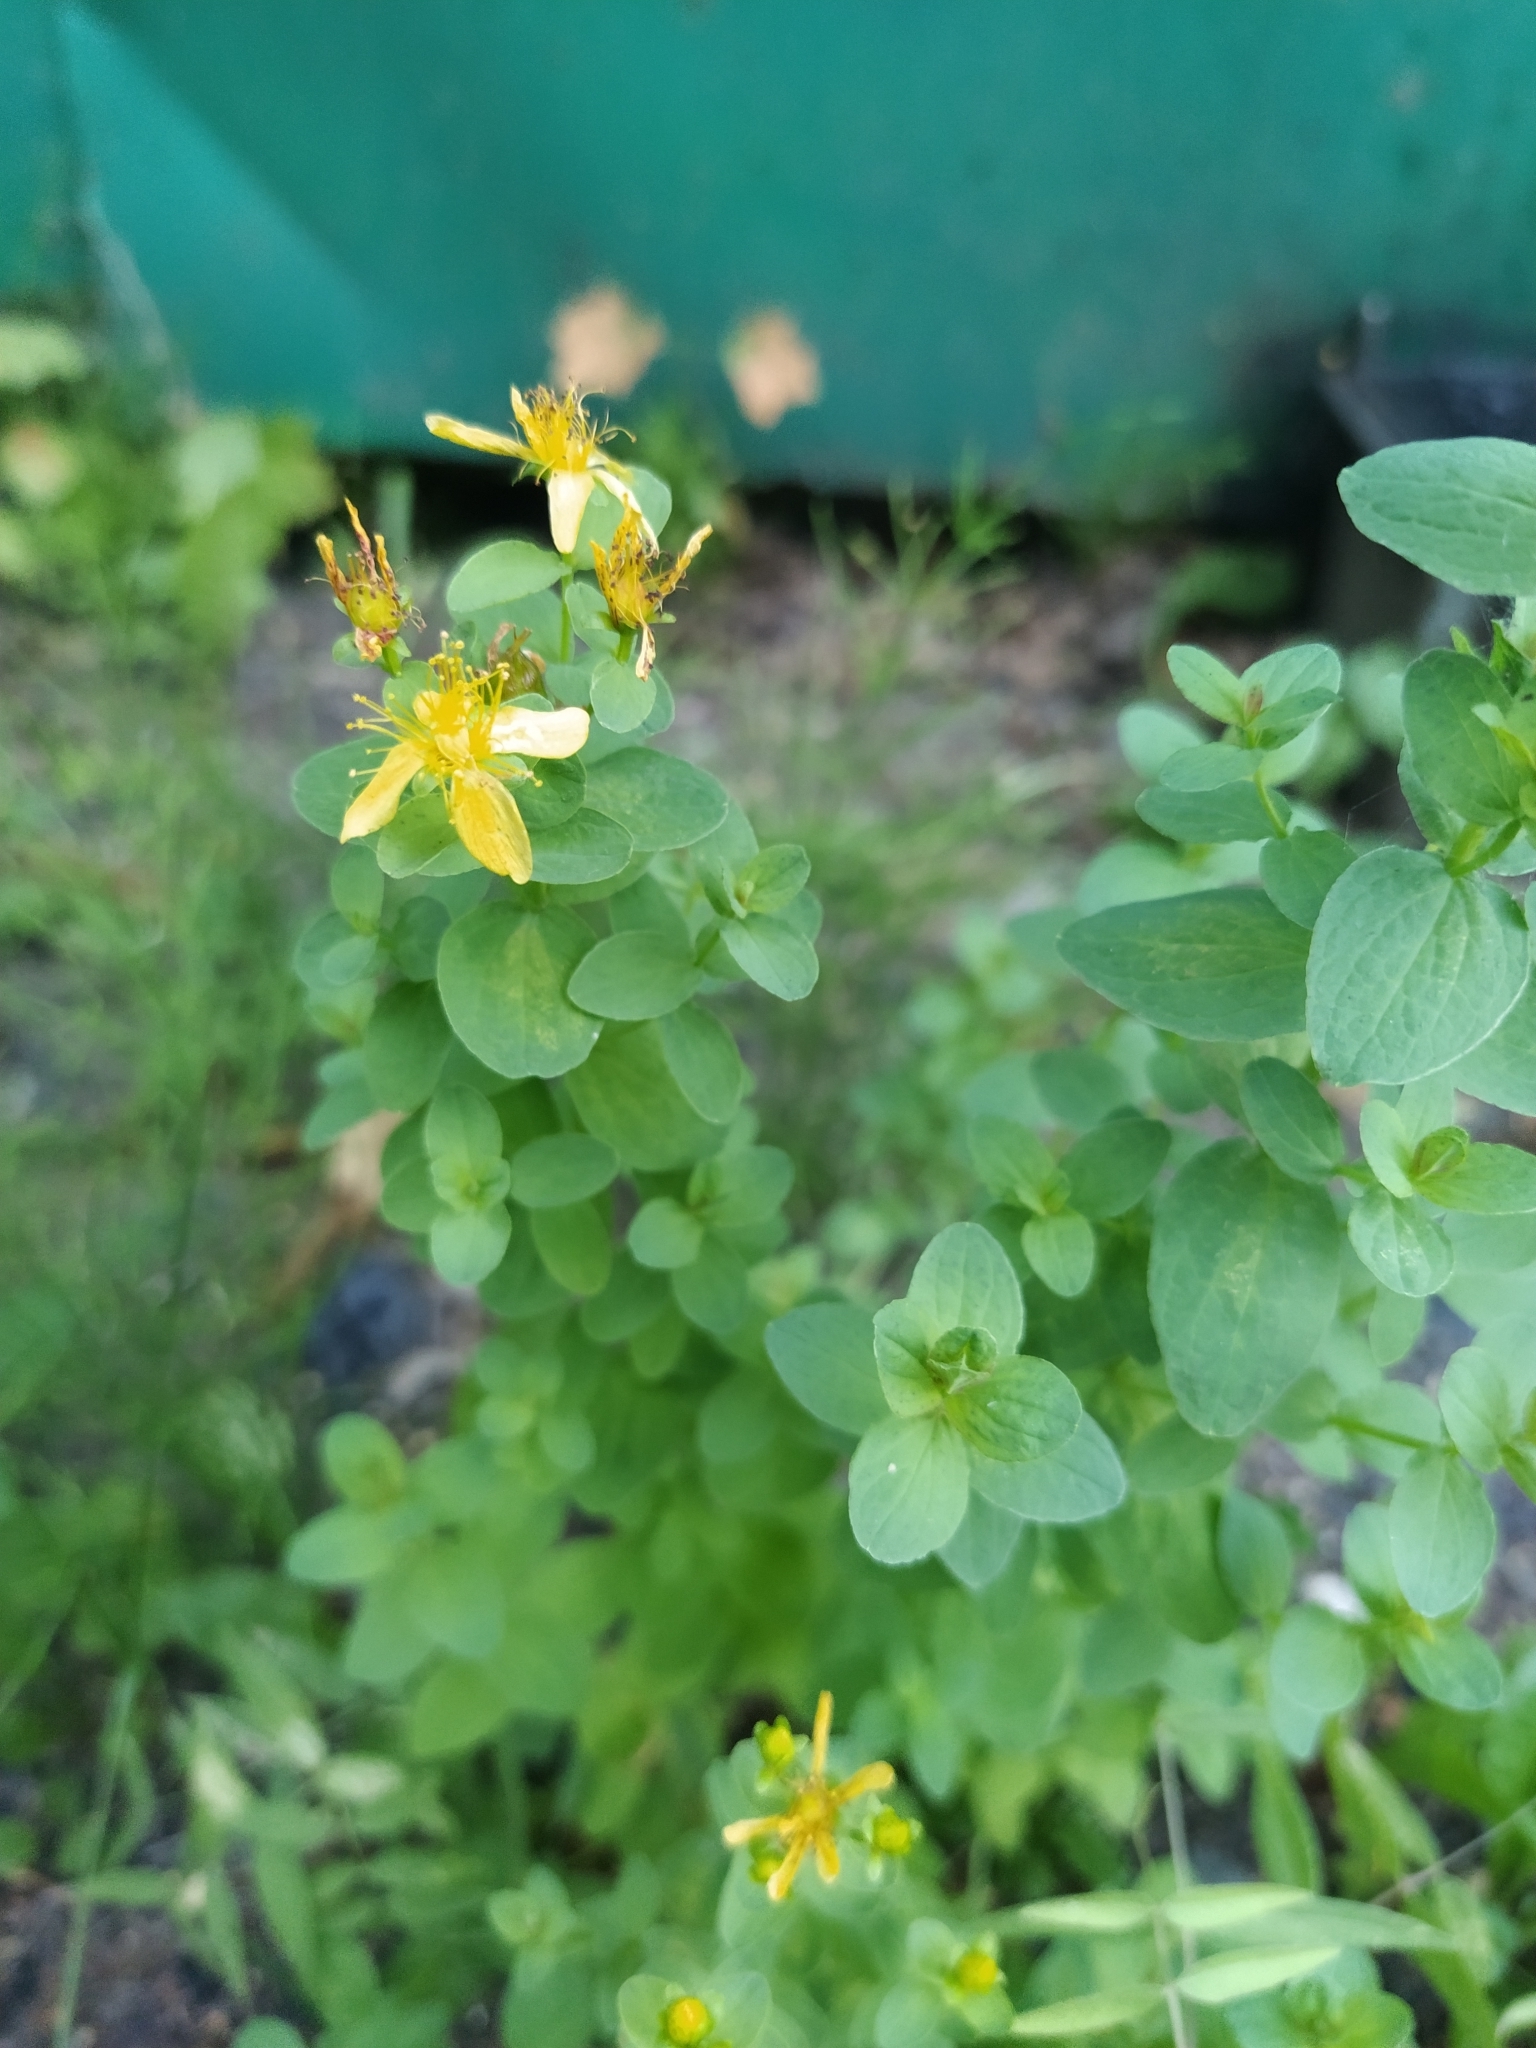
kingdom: Plantae
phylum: Tracheophyta
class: Magnoliopsida
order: Malpighiales
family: Hypericaceae
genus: Hypericum
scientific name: Hypericum maculatum
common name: Imperforate st. john's-wort
